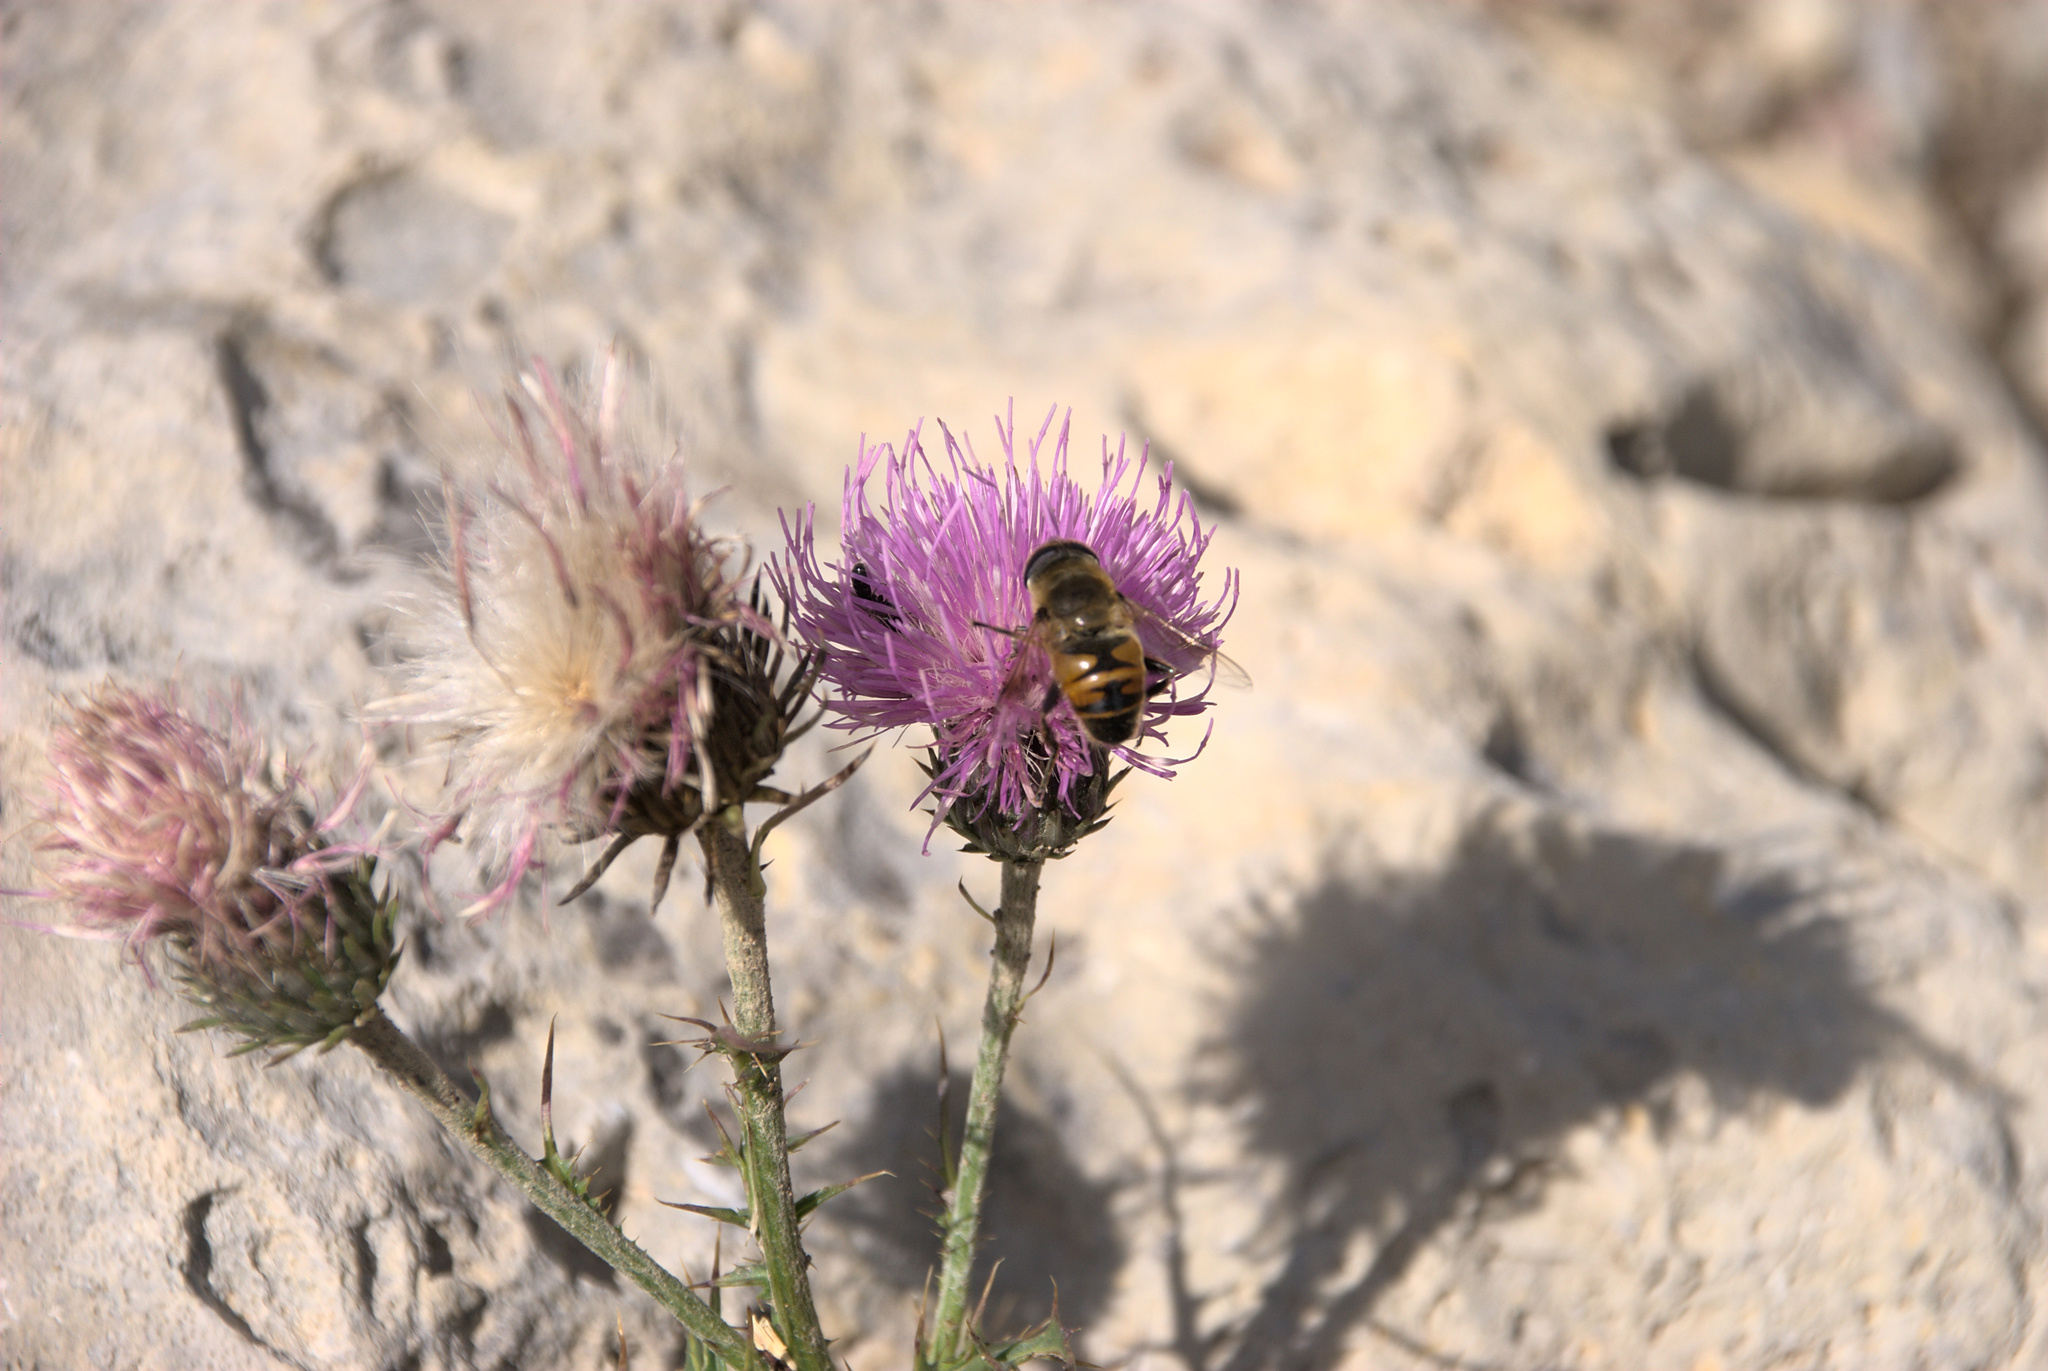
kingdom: Animalia
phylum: Arthropoda
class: Insecta
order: Diptera
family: Syrphidae
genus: Eristalis
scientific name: Eristalis tenax
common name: Drone fly
